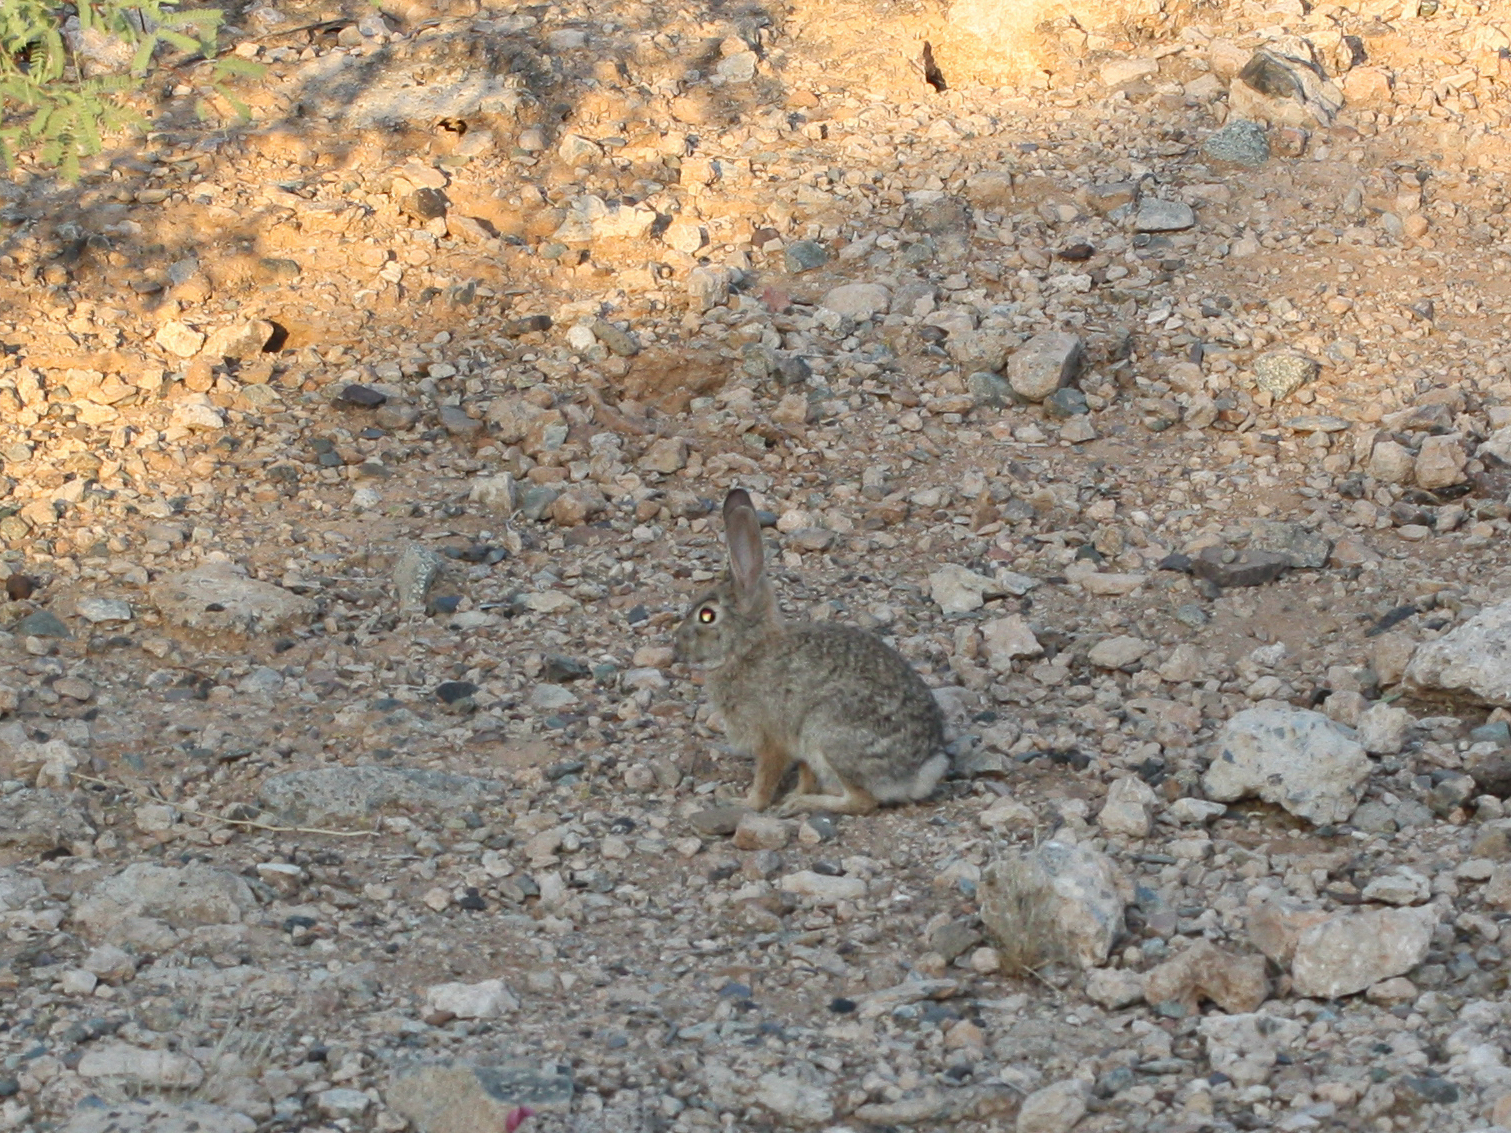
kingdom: Animalia
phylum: Chordata
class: Mammalia
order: Lagomorpha
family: Leporidae
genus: Sylvilagus
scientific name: Sylvilagus audubonii
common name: Desert cottontail
